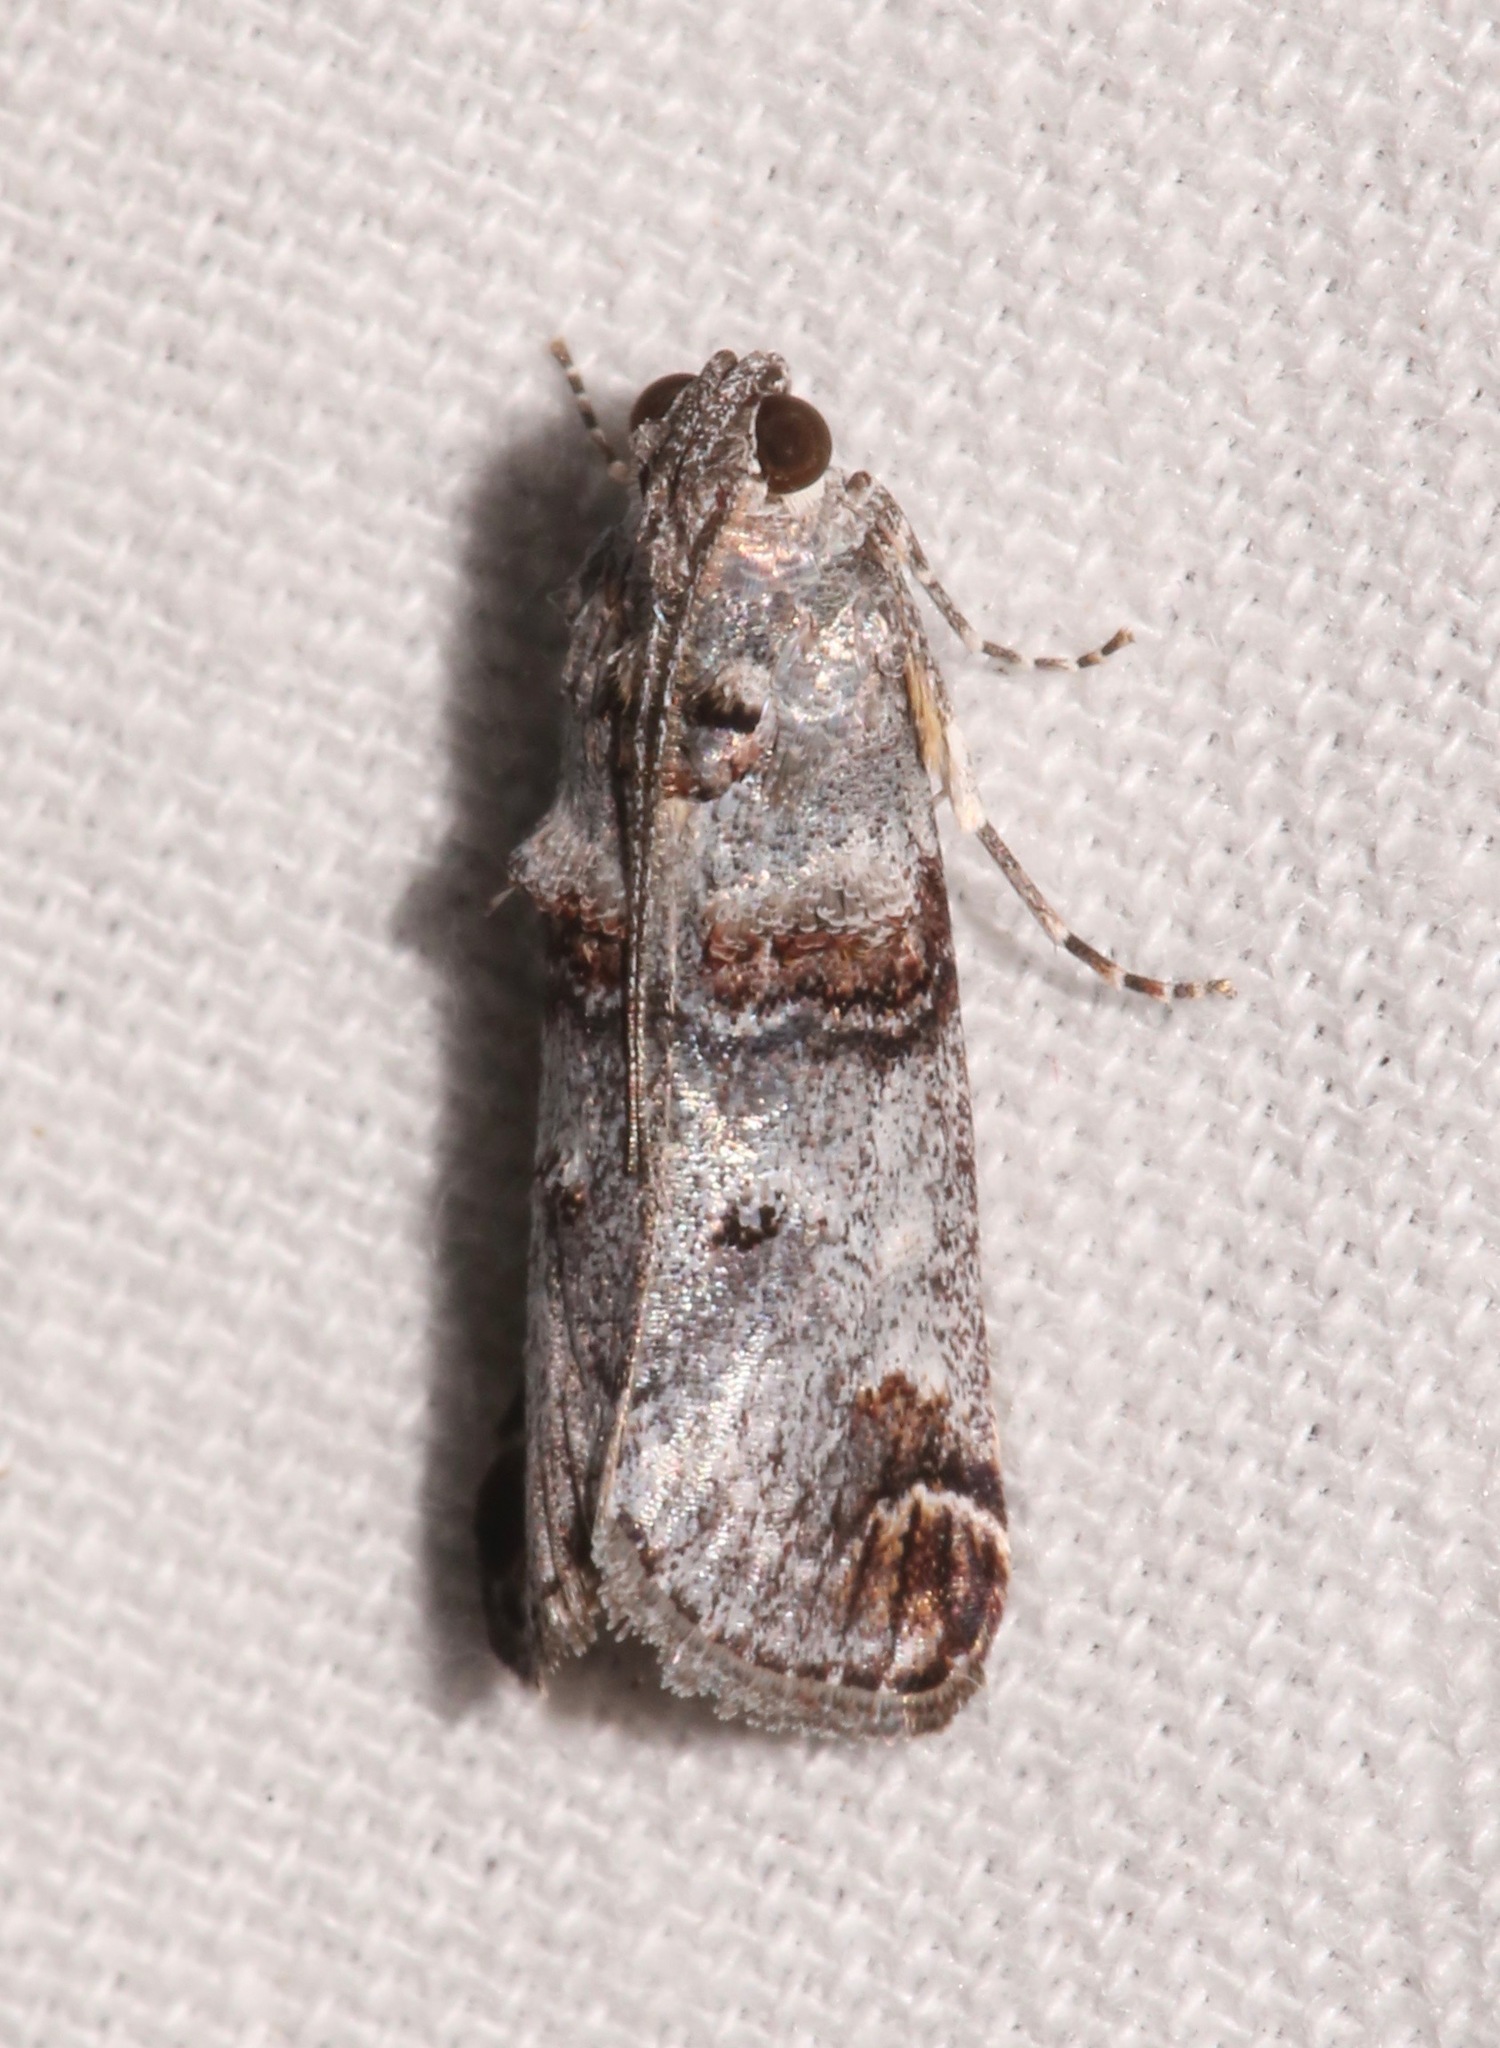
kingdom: Animalia
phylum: Arthropoda
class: Insecta
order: Lepidoptera
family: Pyralidae
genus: Oneida
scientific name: Oneida luniferella
